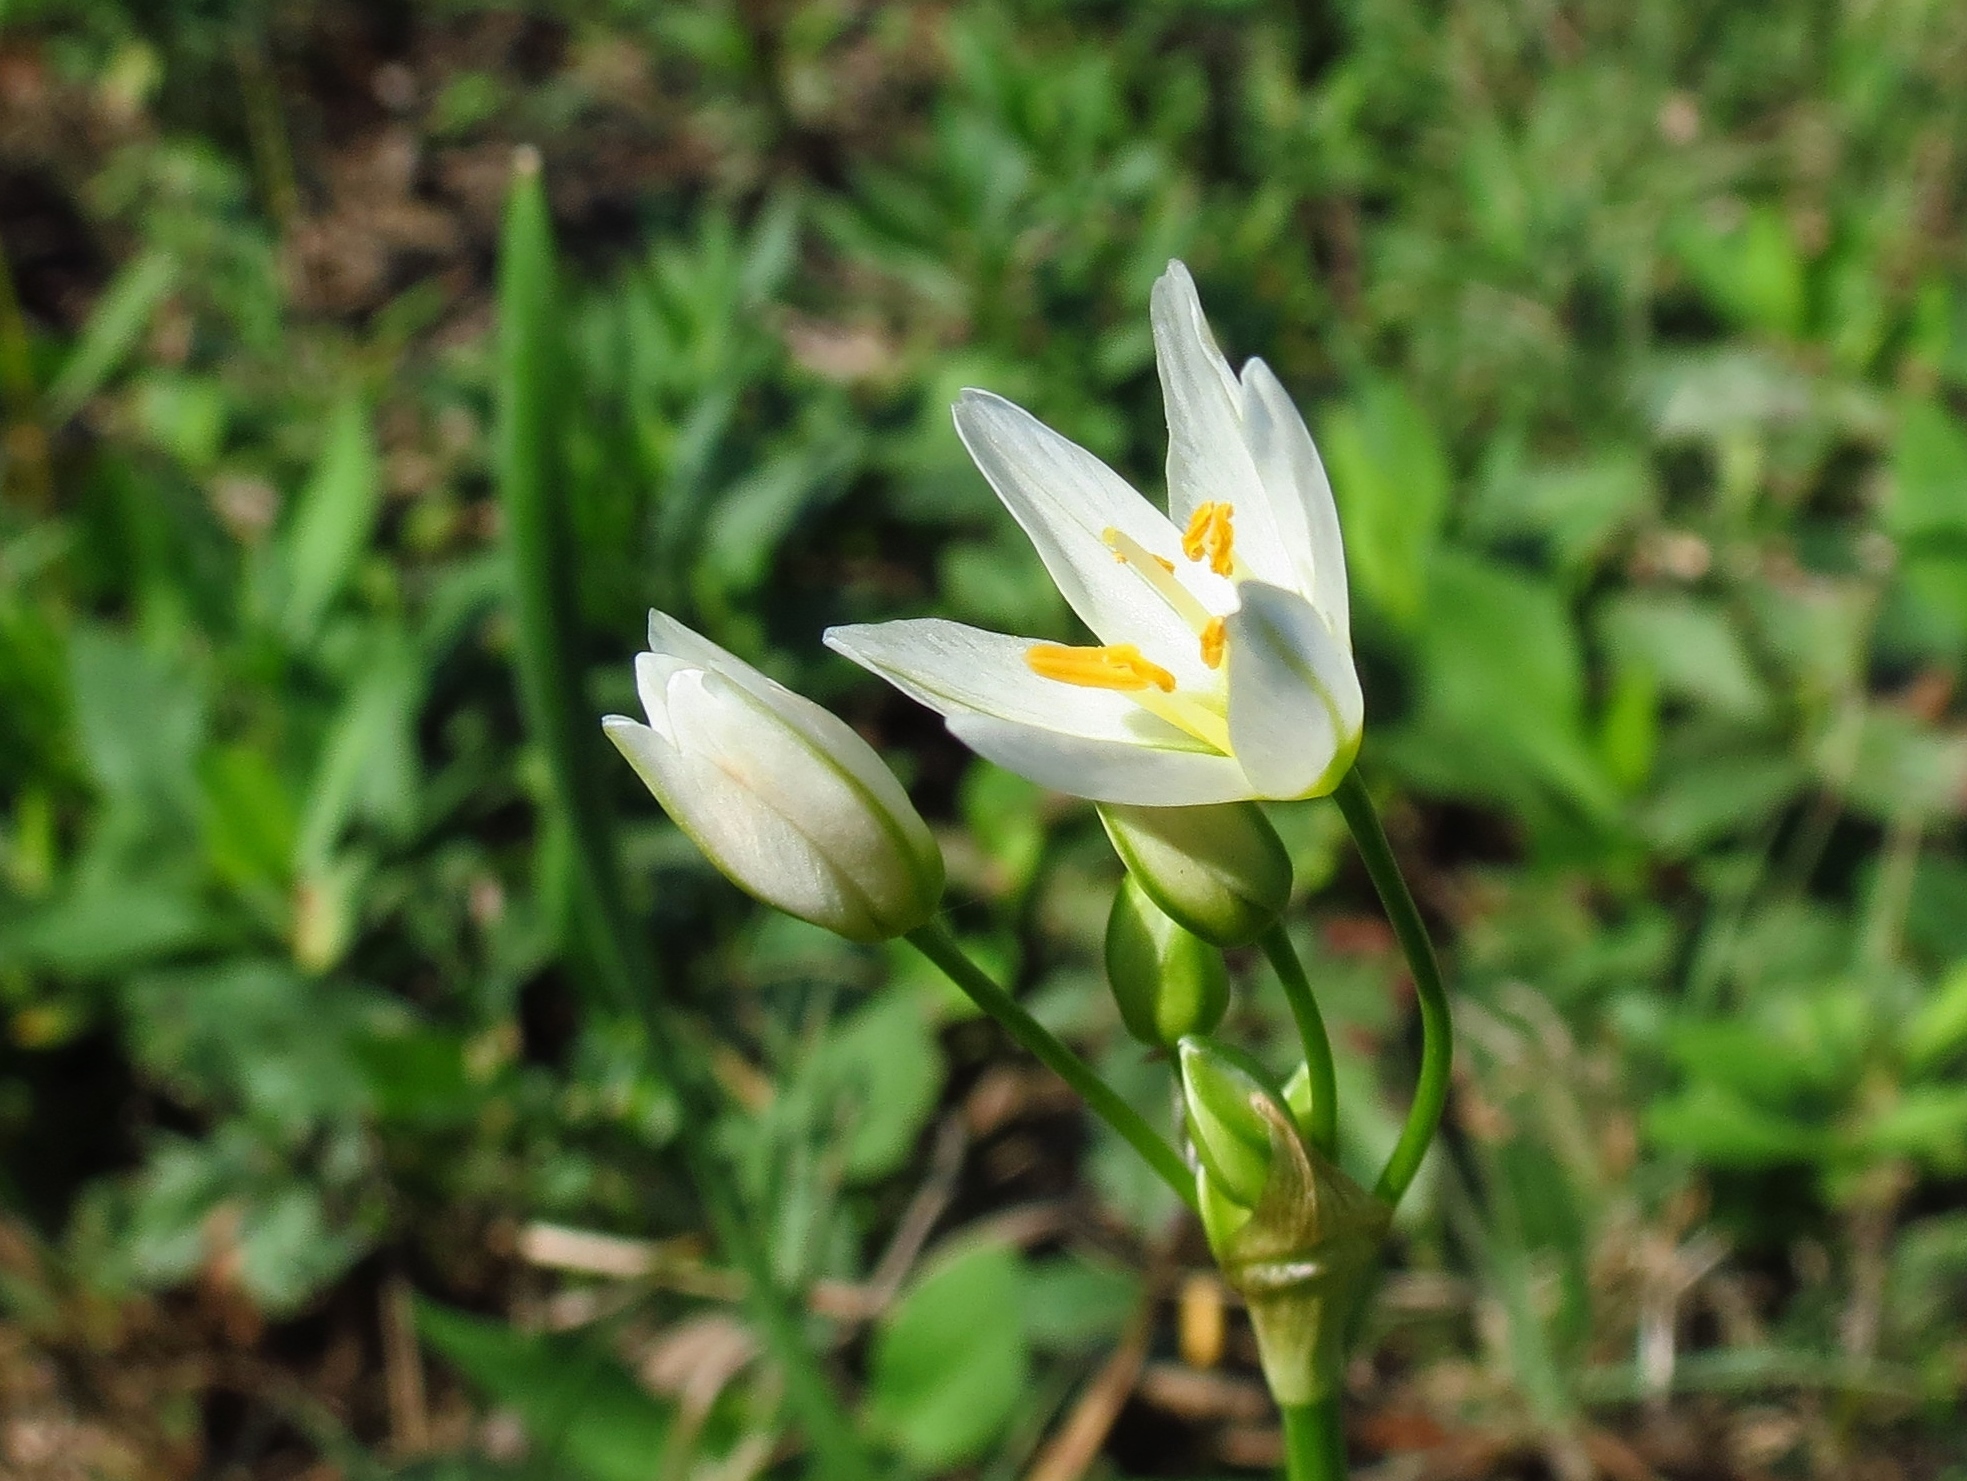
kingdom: Plantae
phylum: Tracheophyta
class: Liliopsida
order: Asparagales
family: Amaryllidaceae
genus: Nothoscordum
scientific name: Nothoscordum bivalve
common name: Crow-poison
